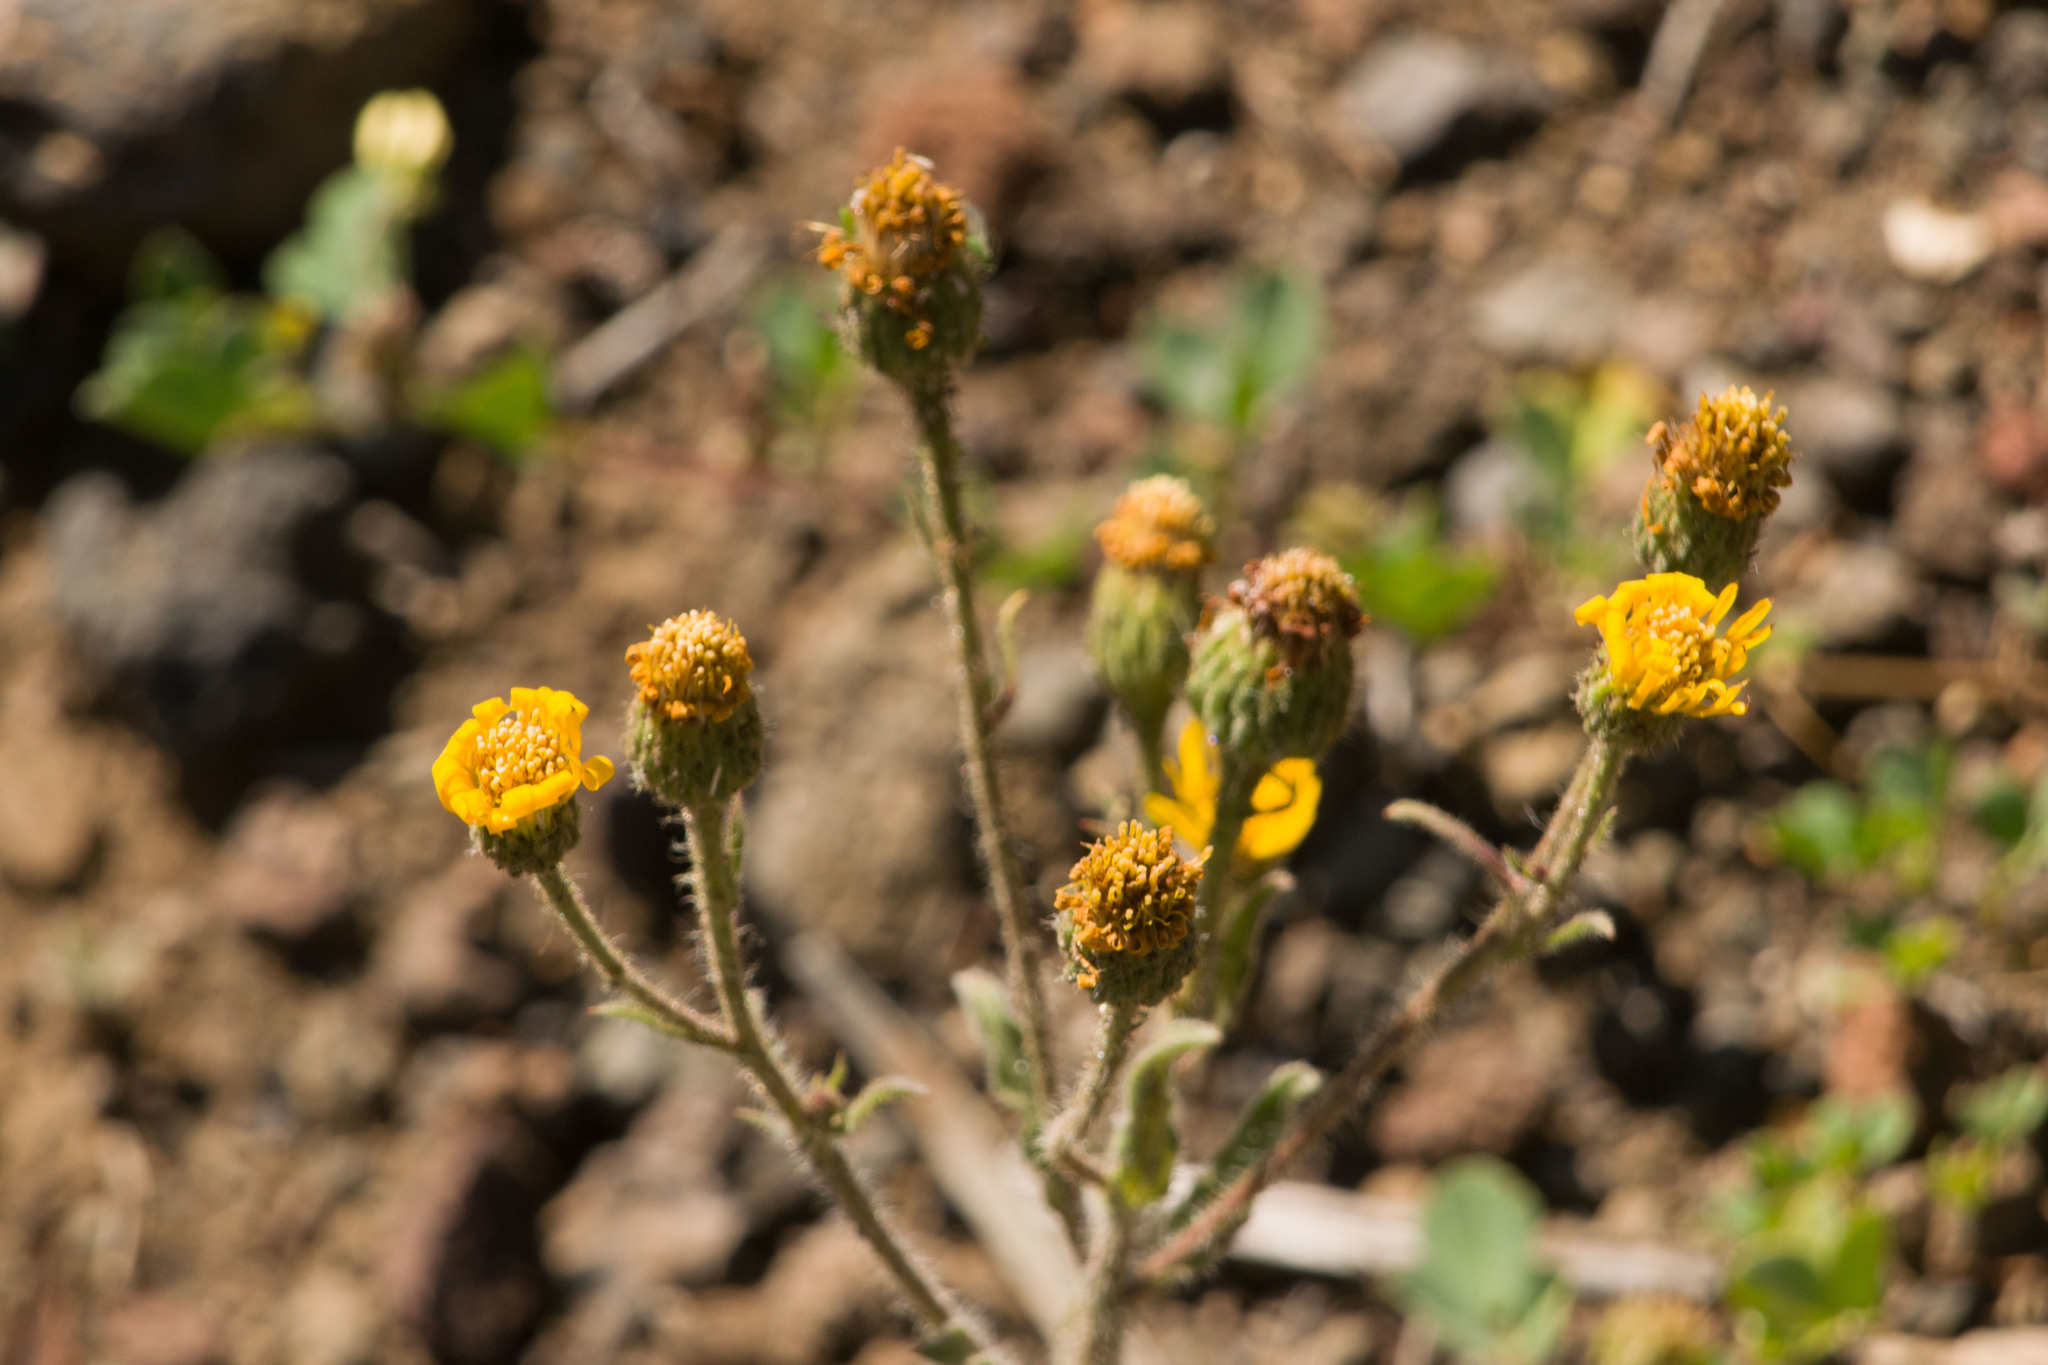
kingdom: Plantae
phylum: Tracheophyta
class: Magnoliopsida
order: Asterales
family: Asteraceae
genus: Heterotheca
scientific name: Heterotheca grandiflora
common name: Telegraphweed
